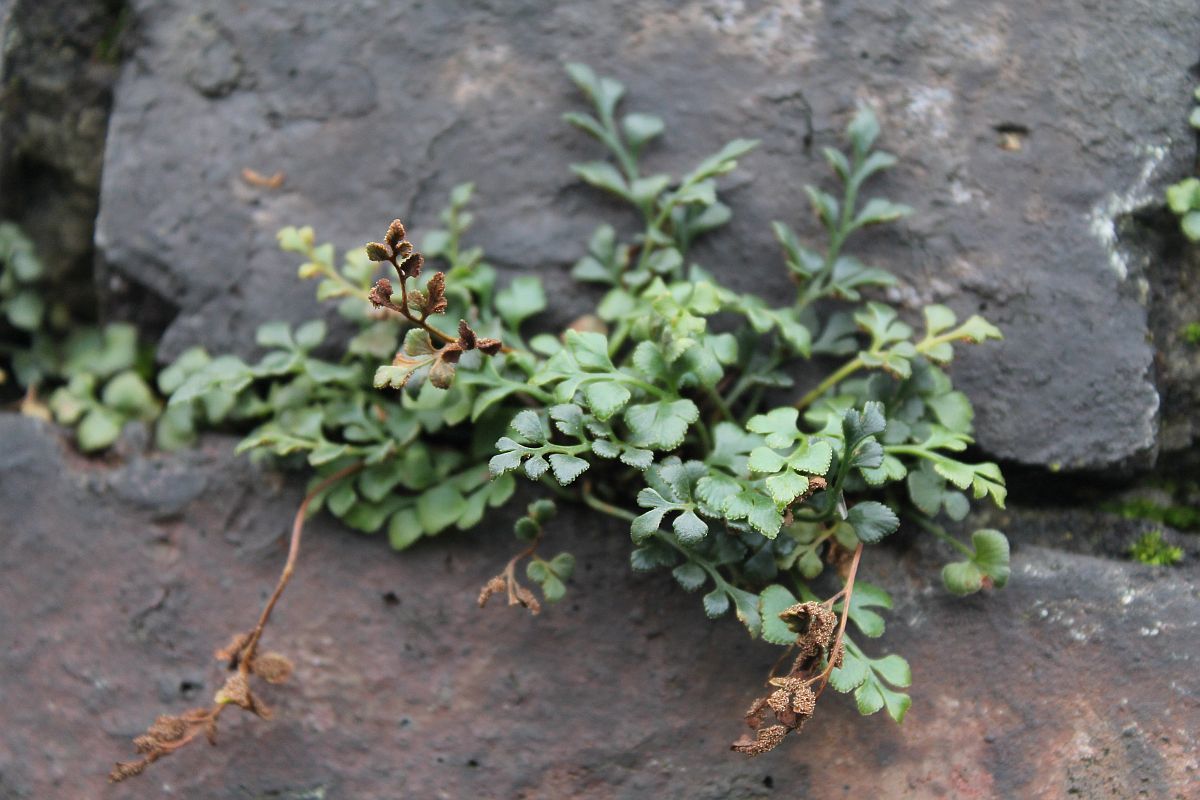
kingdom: Plantae
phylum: Tracheophyta
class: Polypodiopsida
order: Polypodiales
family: Aspleniaceae
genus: Asplenium
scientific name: Asplenium ruta-muraria
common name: Wall-rue
